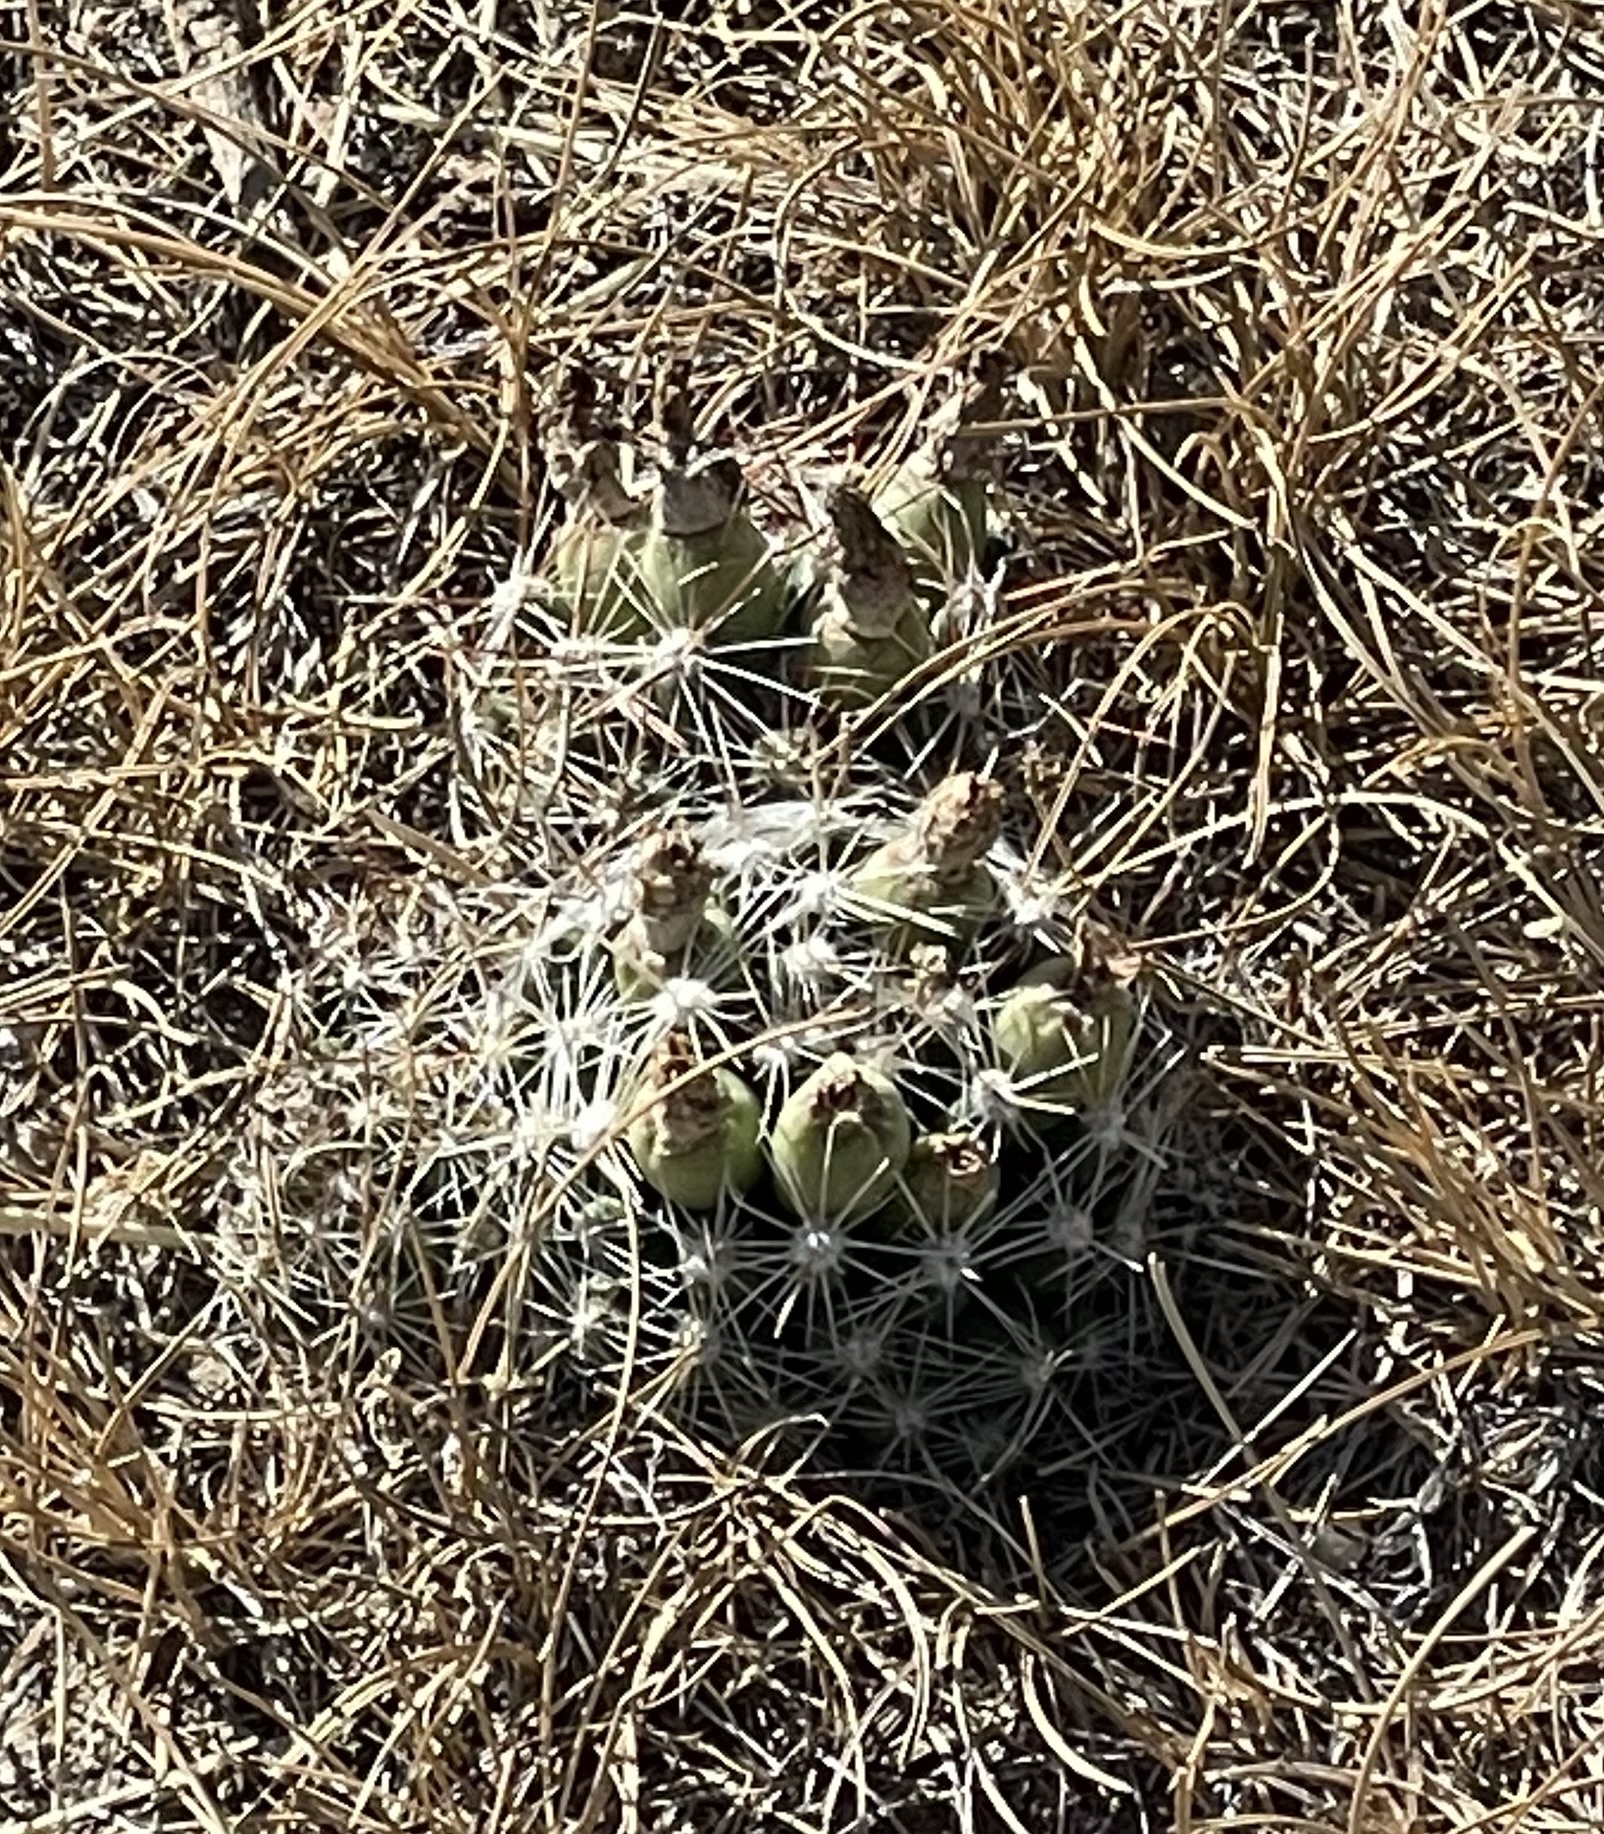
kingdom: Plantae
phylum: Tracheophyta
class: Magnoliopsida
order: Caryophyllales
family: Cactaceae
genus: Pelecyphora
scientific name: Pelecyphora vivipara
